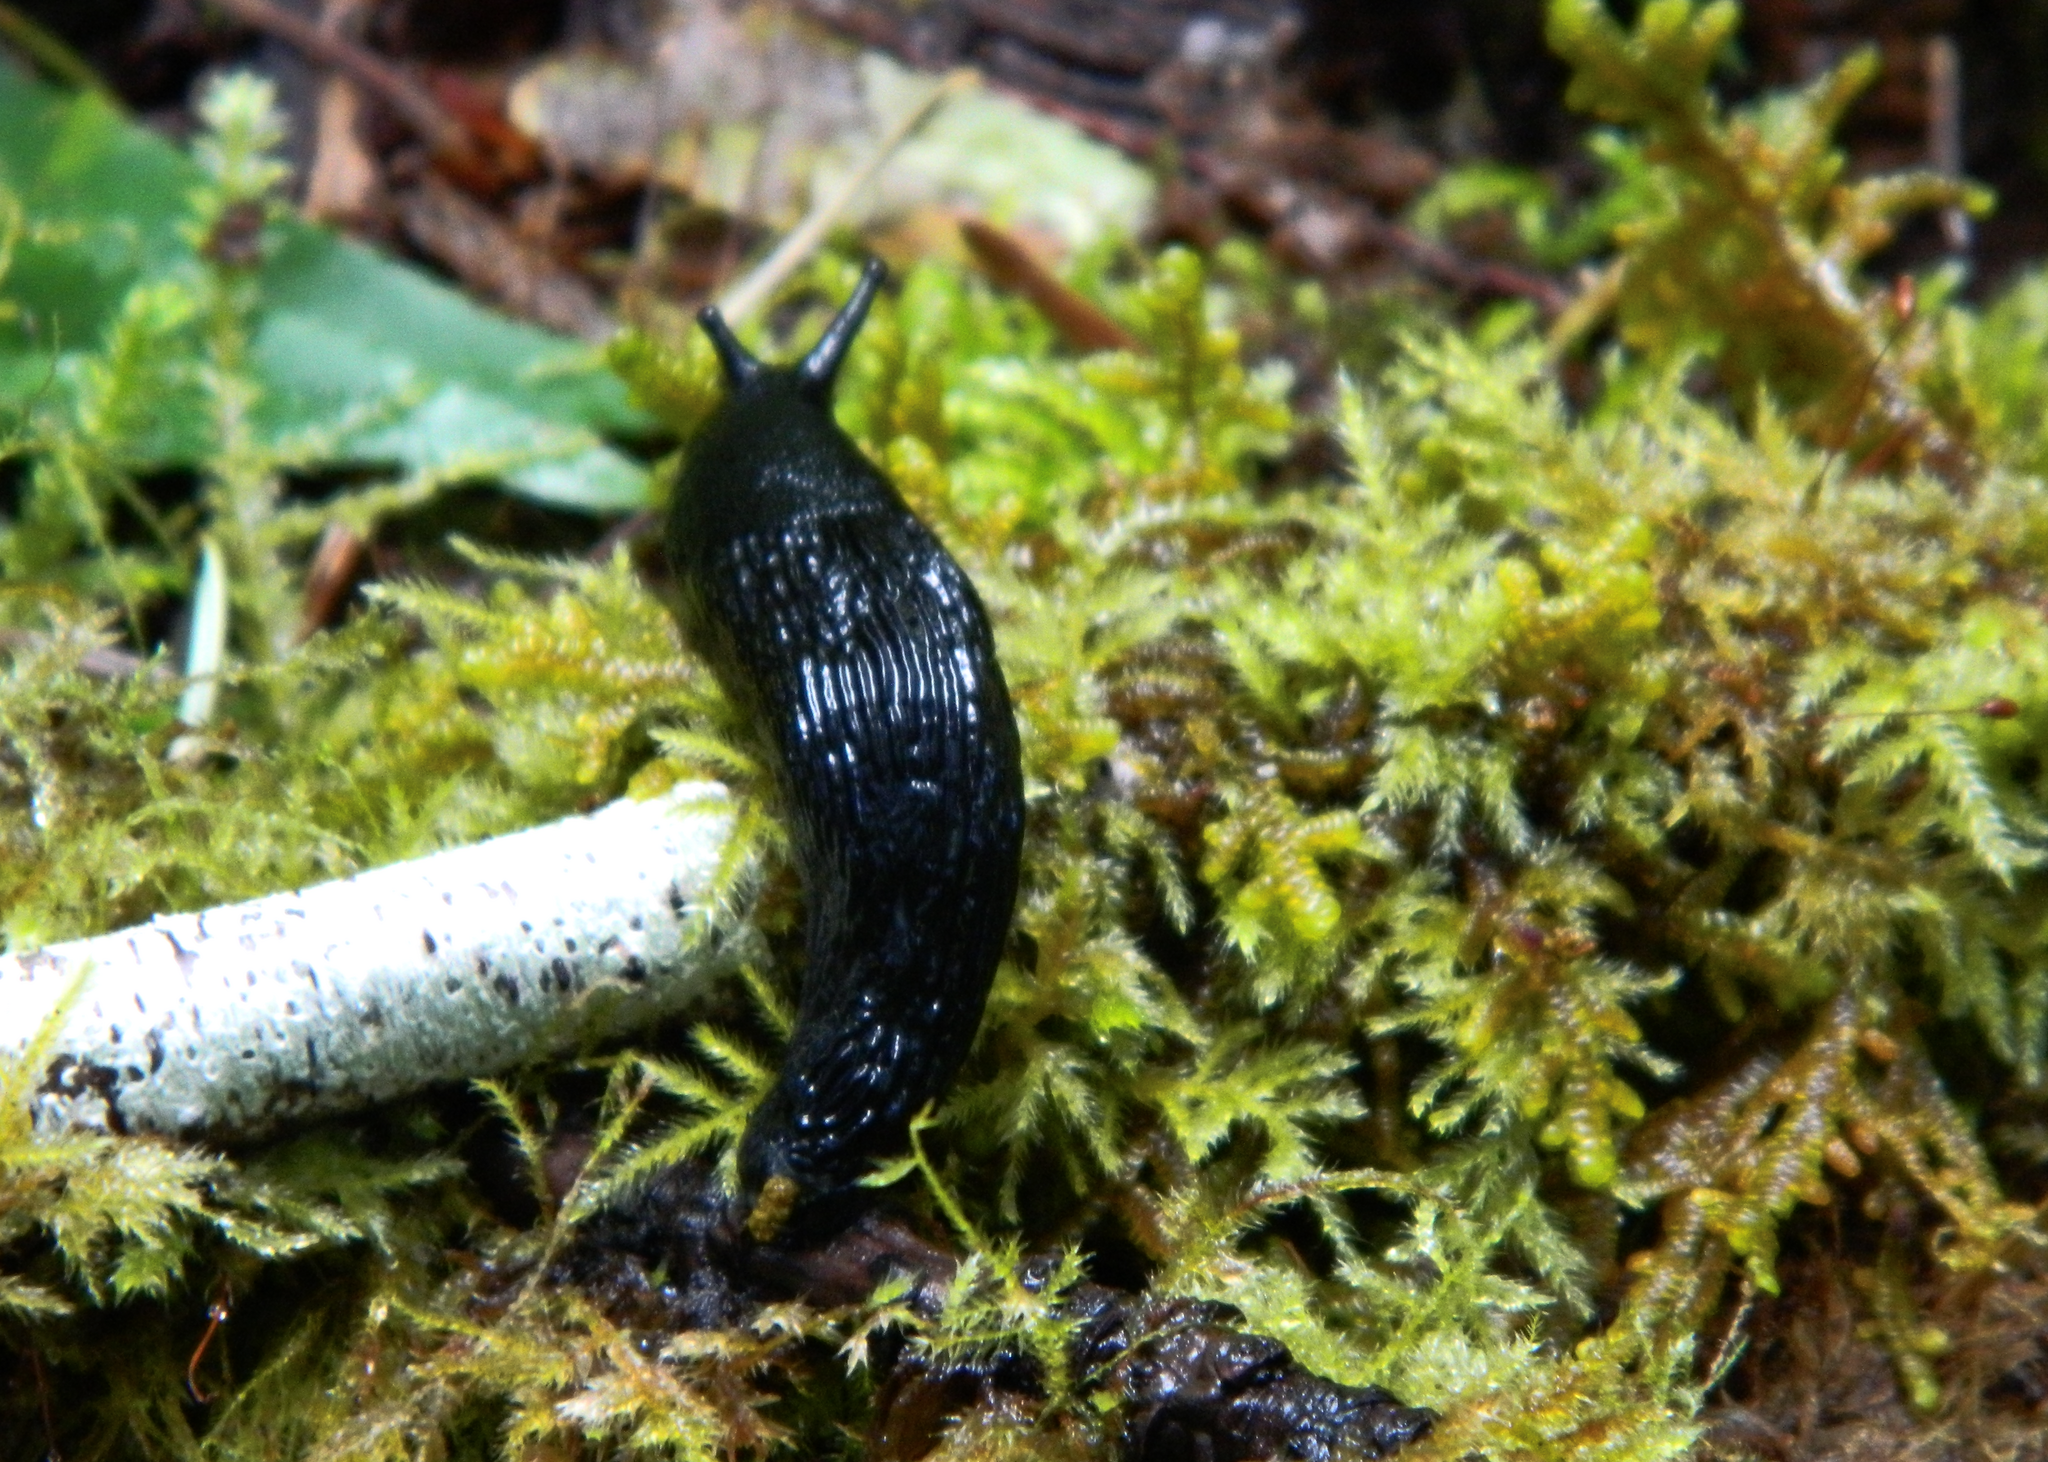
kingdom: Animalia
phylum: Mollusca
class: Gastropoda
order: Stylommatophora
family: Arionidae
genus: Arion
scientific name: Arion ater
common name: Black arion
